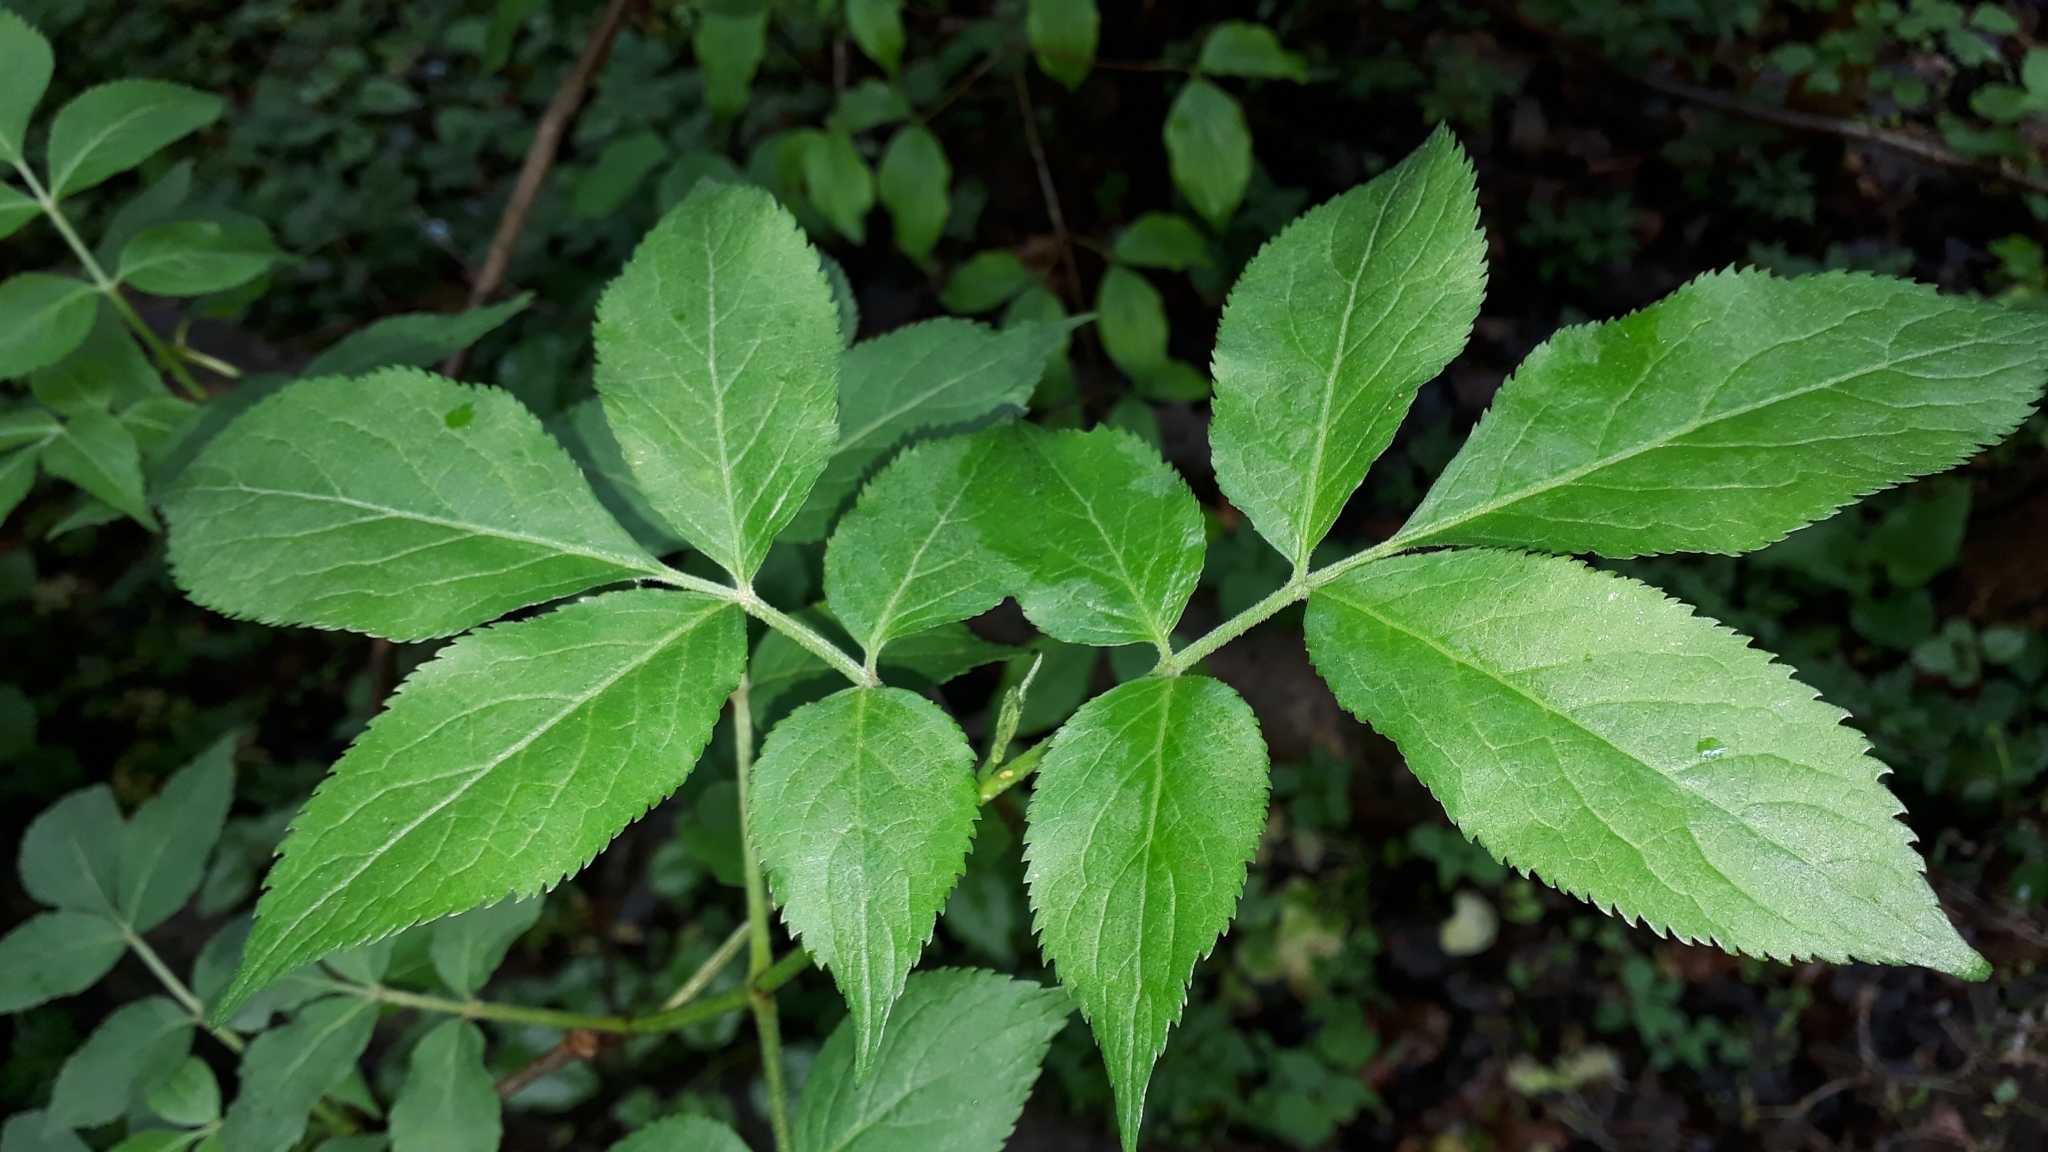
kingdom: Plantae
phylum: Tracheophyta
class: Magnoliopsida
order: Dipsacales
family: Viburnaceae
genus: Sambucus
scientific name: Sambucus nigra
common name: Elder
